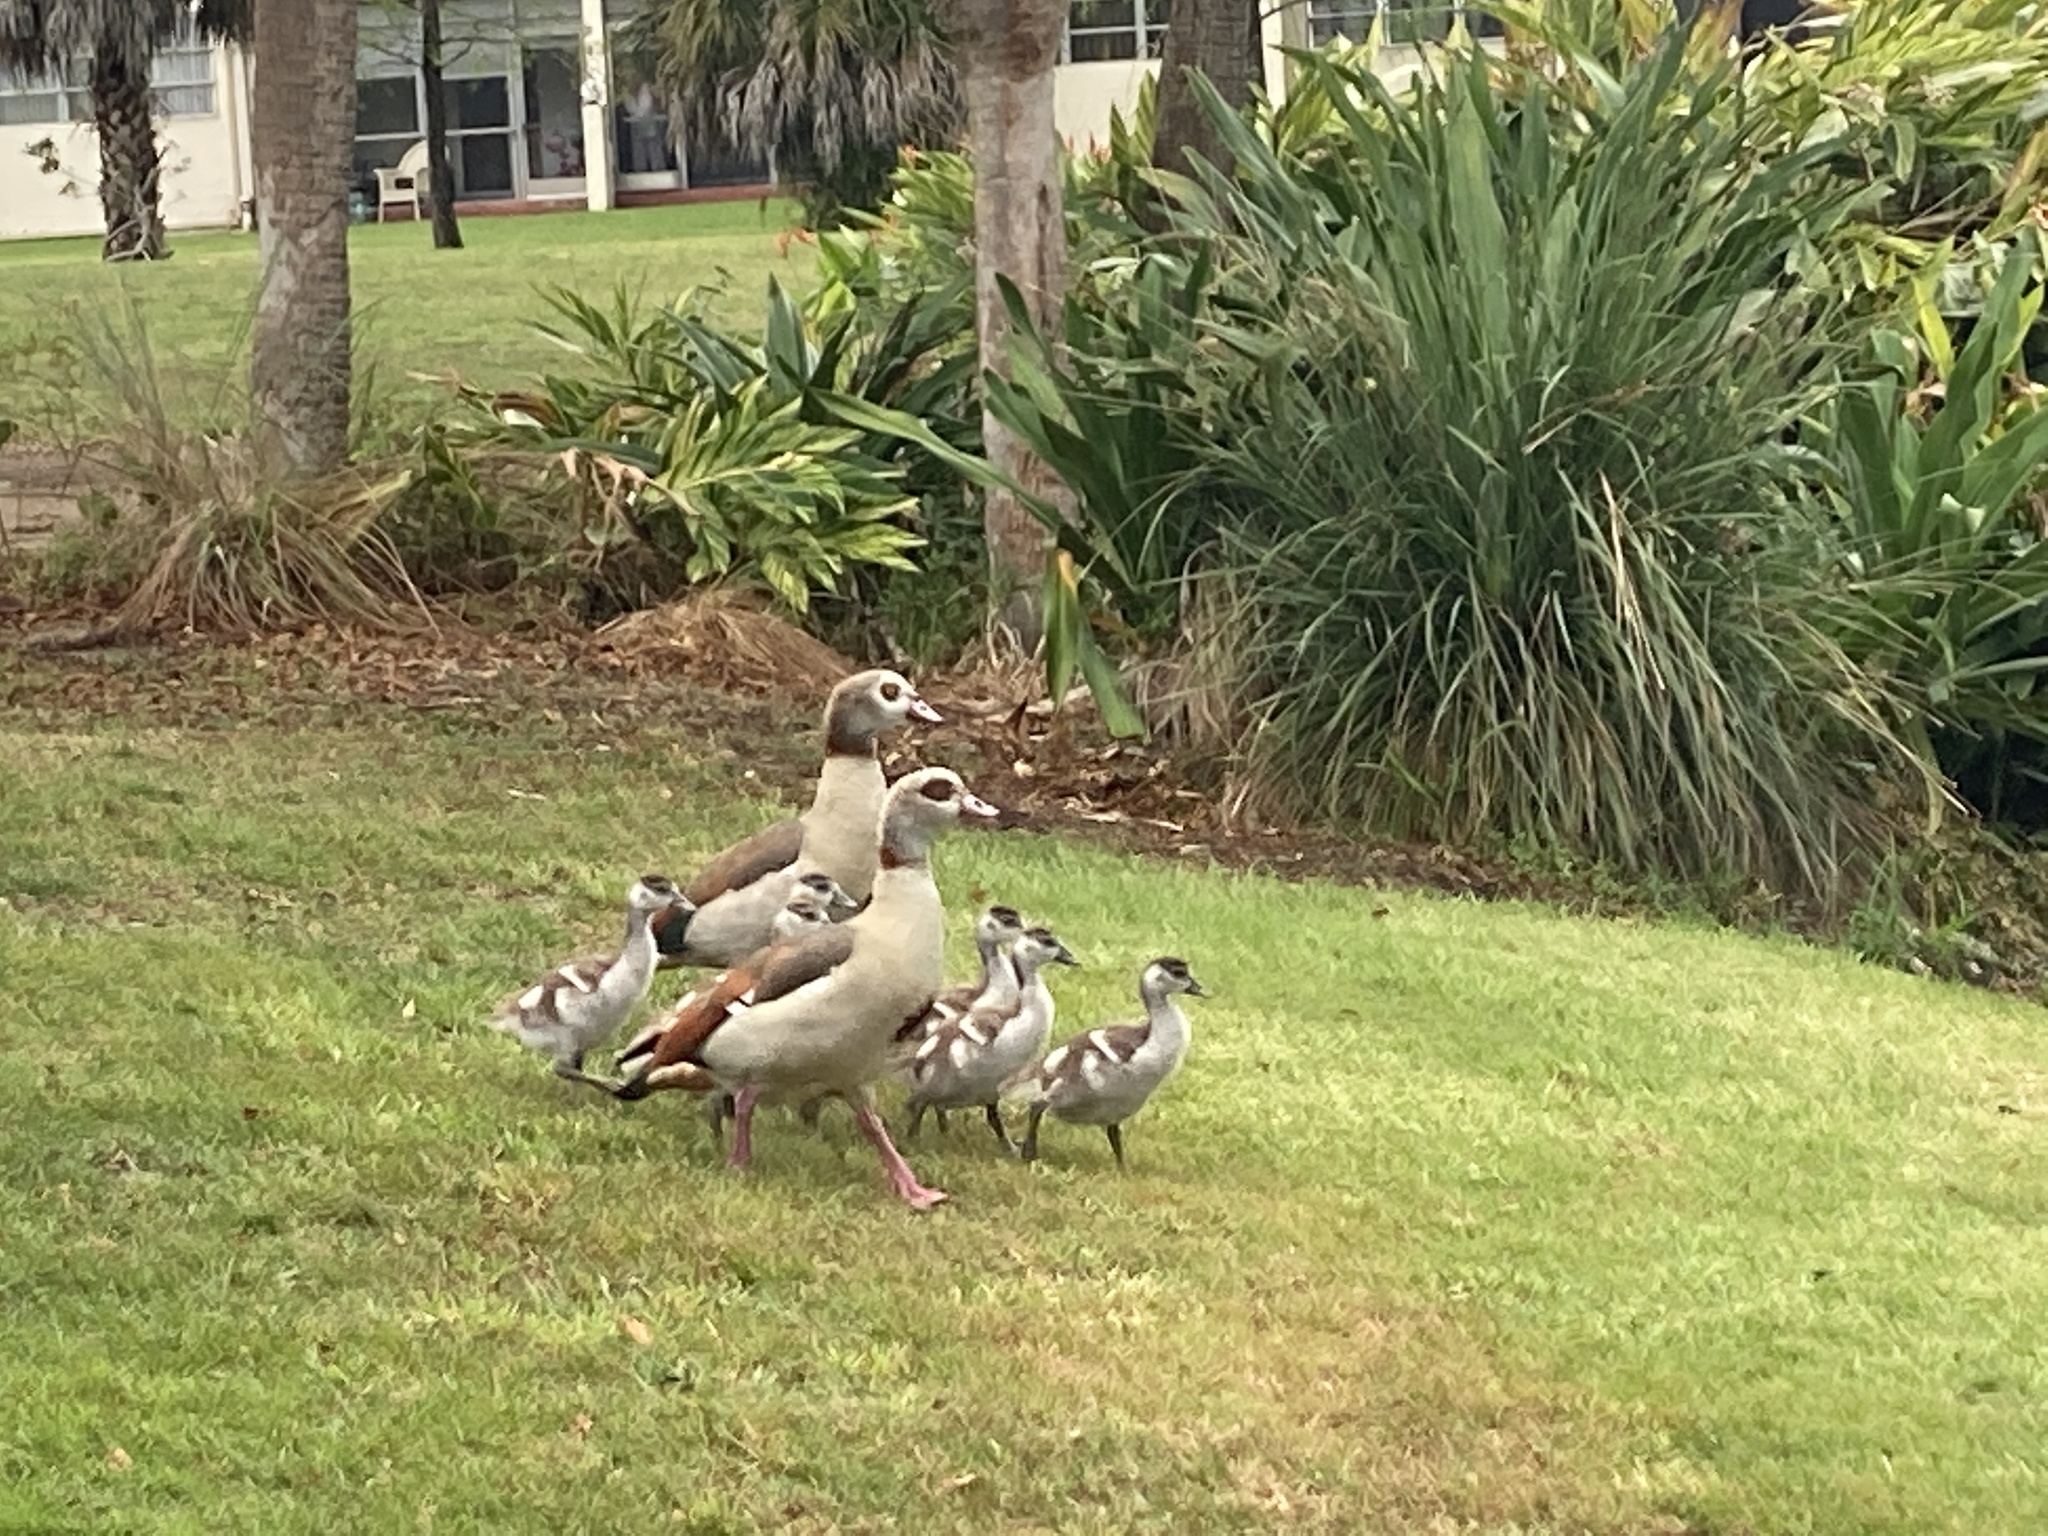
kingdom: Animalia
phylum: Chordata
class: Aves
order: Anseriformes
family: Anatidae
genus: Alopochen
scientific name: Alopochen aegyptiaca
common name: Egyptian goose
